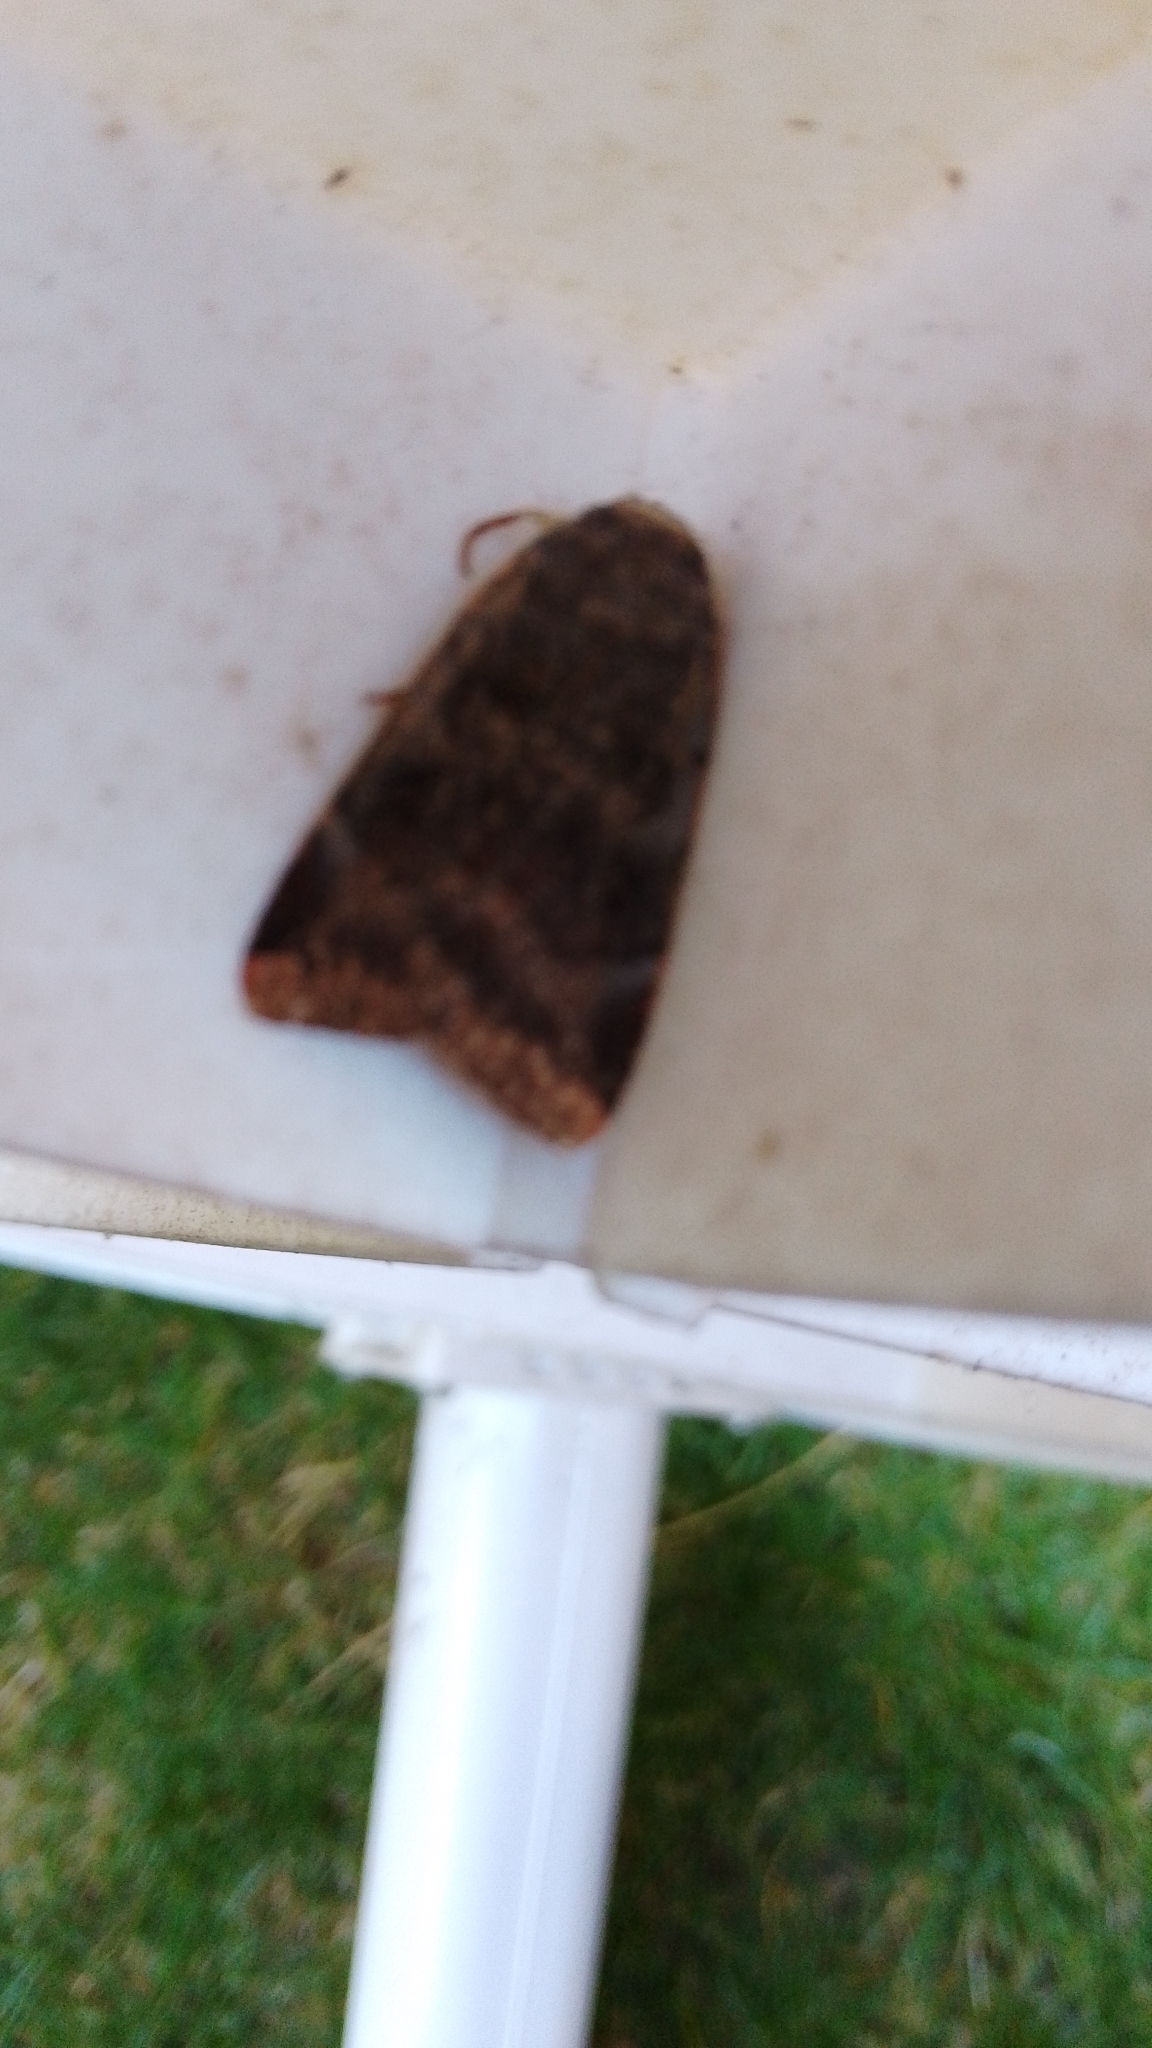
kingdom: Animalia
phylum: Arthropoda
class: Insecta
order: Lepidoptera
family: Noctuidae
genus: Noctua
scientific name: Noctua janthe
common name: Lesser broad-bordered yellow underwing
